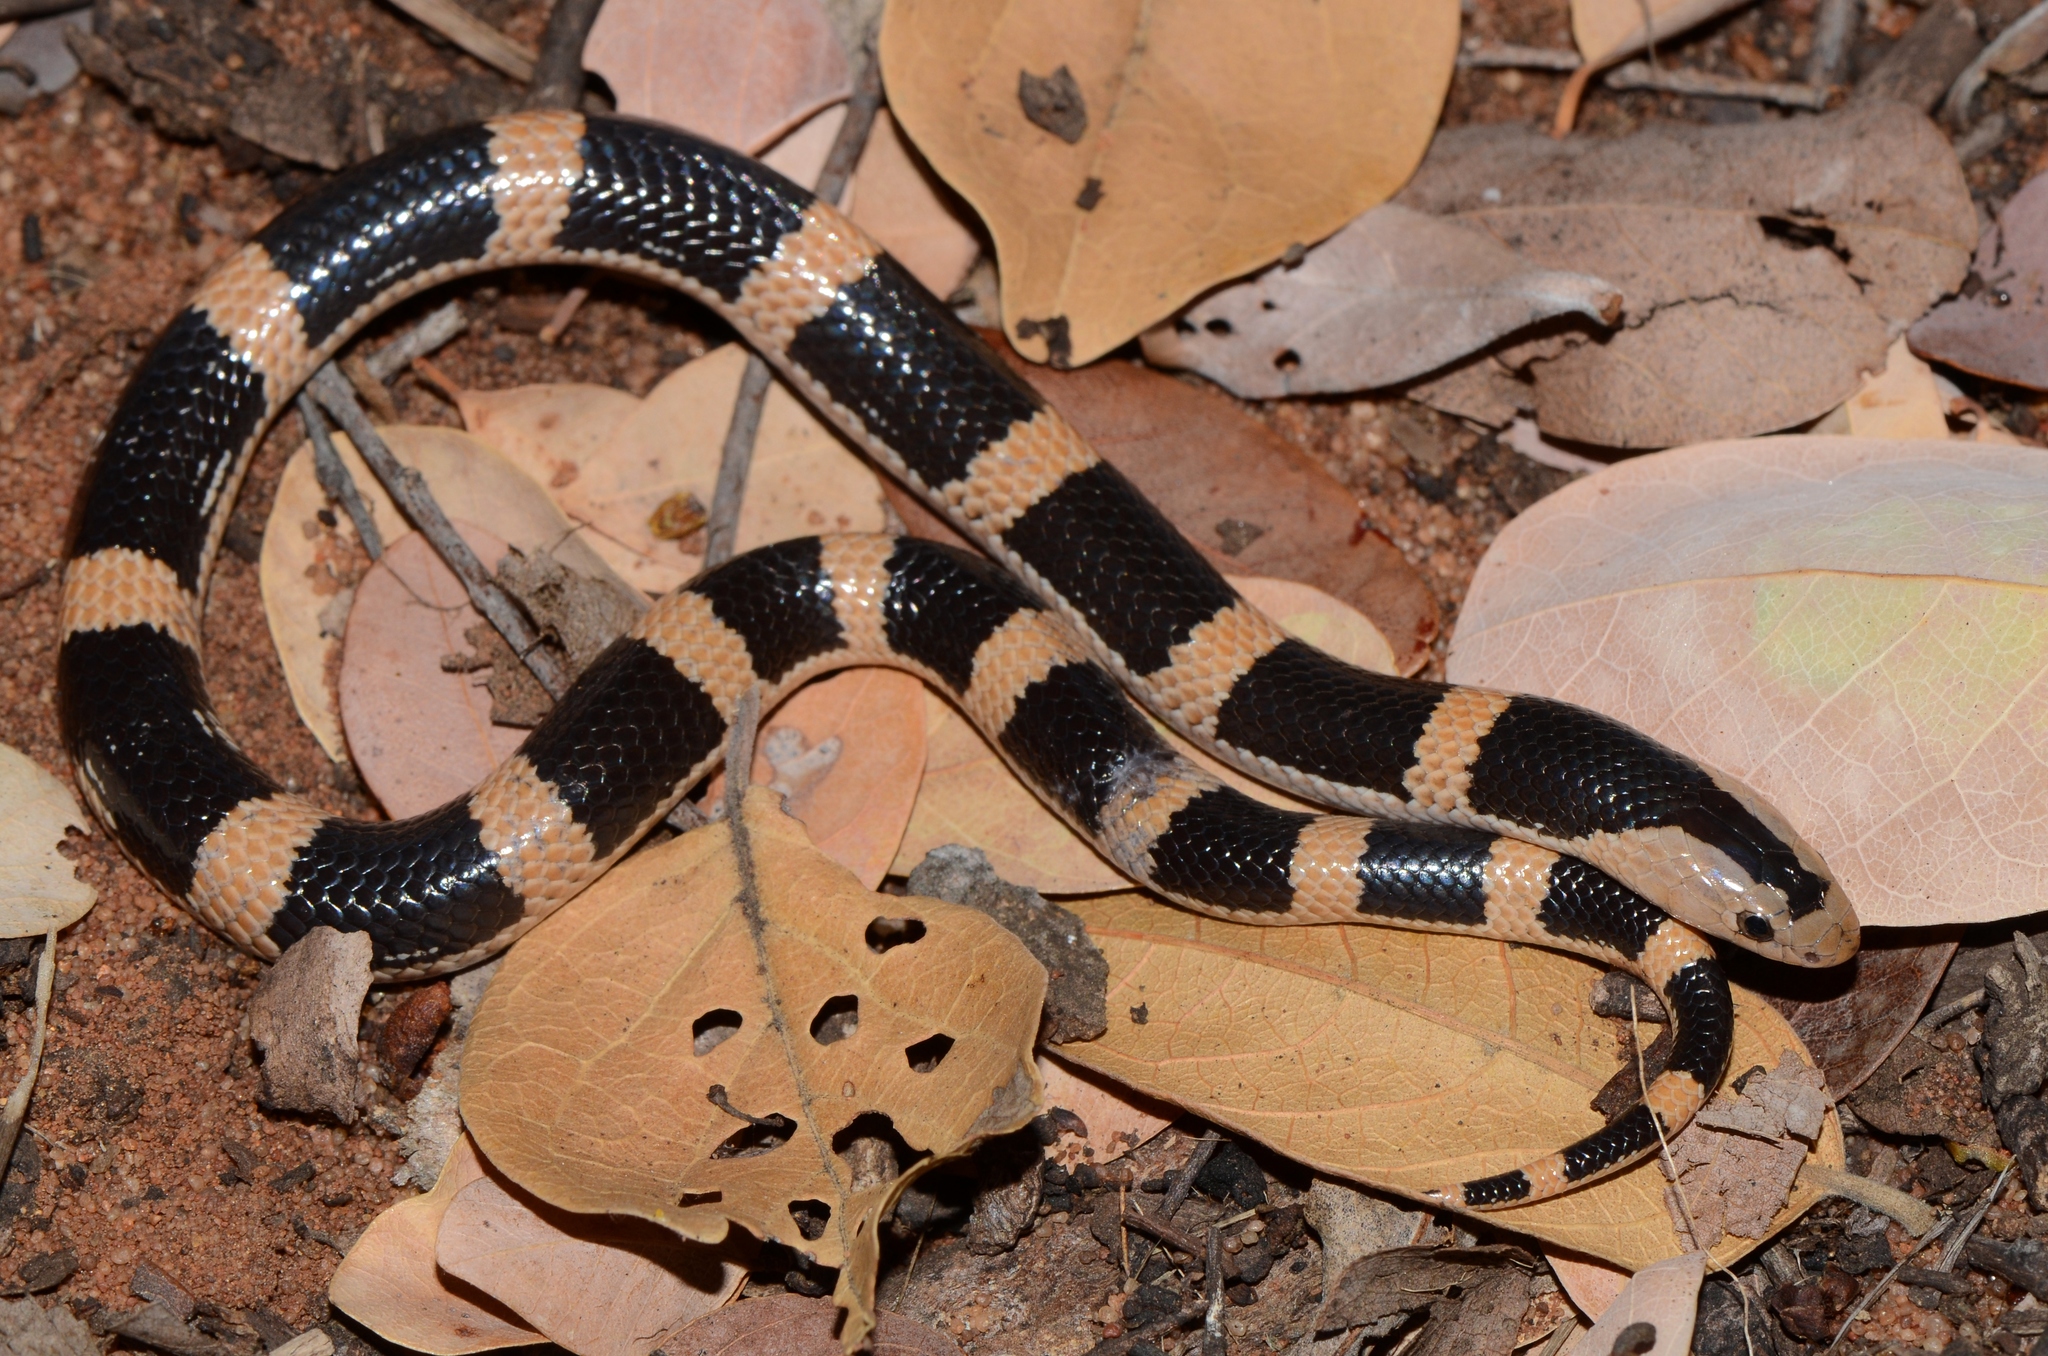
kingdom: Animalia
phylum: Chordata
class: Squamata
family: Elapidae
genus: Elapsoidea
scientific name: Elapsoidea sundevallii
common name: Sundevall's garter snake
